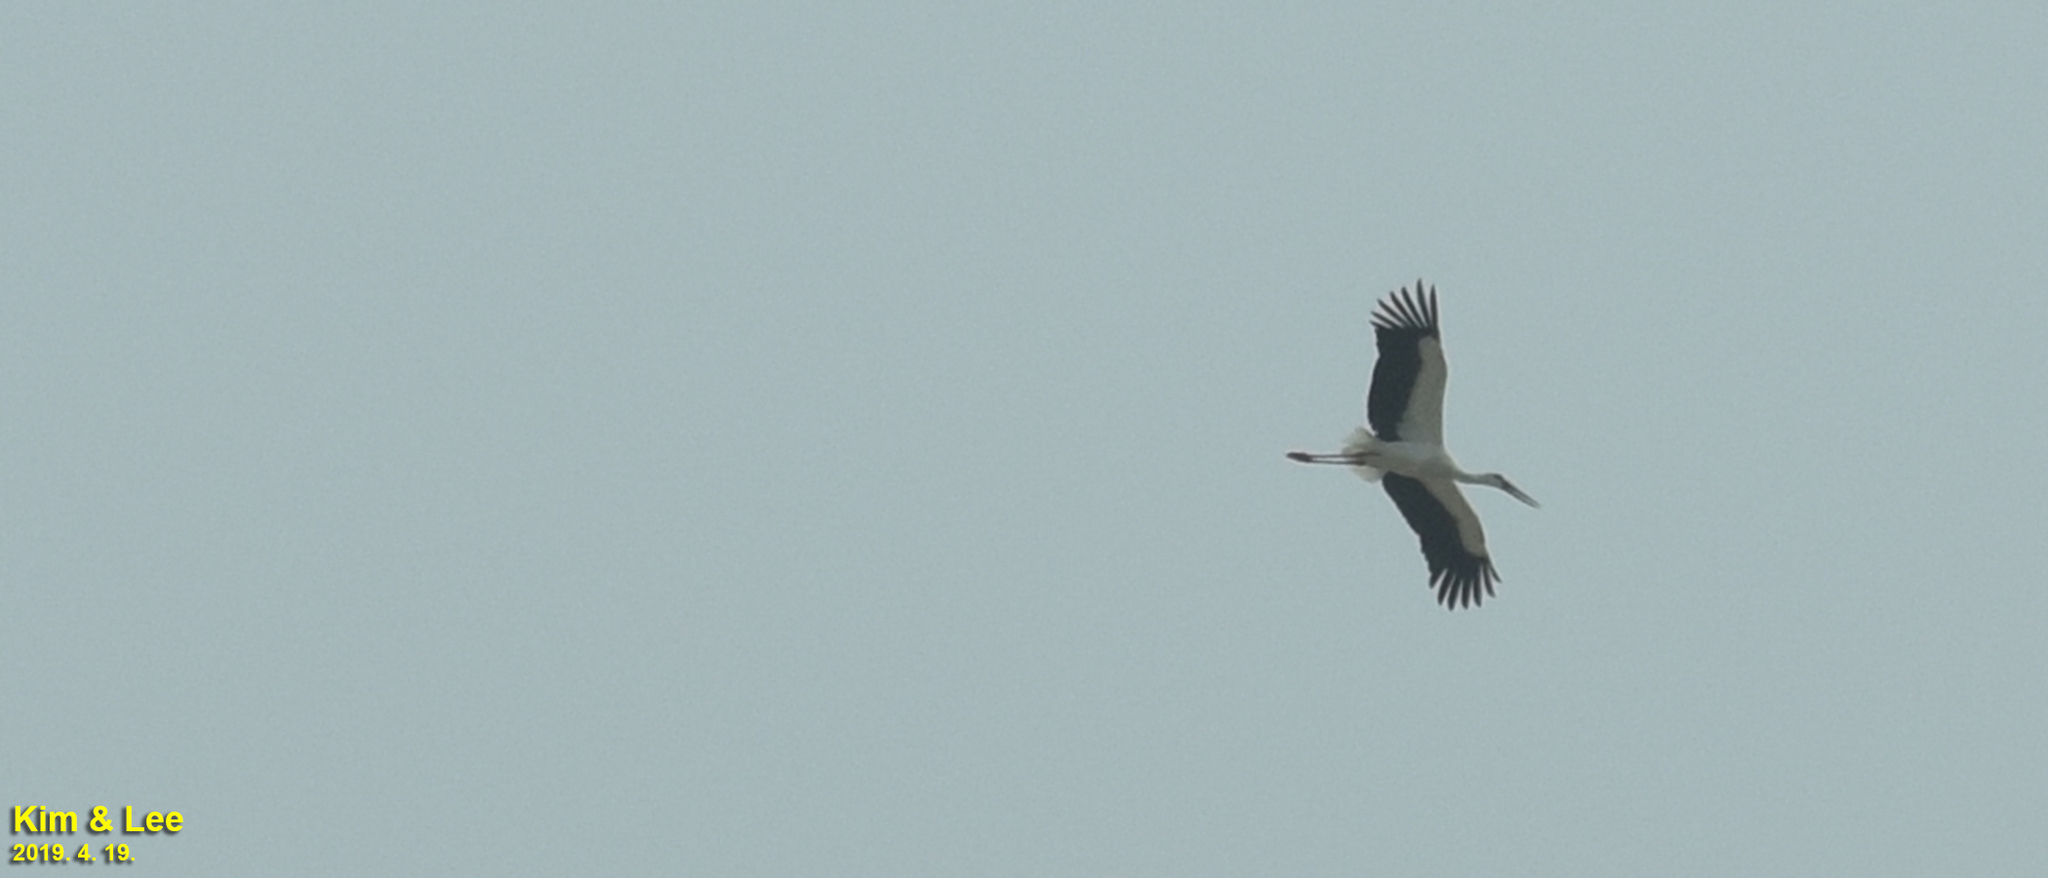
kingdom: Animalia
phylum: Chordata
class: Aves
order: Ciconiiformes
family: Ciconiidae
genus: Ciconia
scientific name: Ciconia boyciana
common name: Oriental stork
